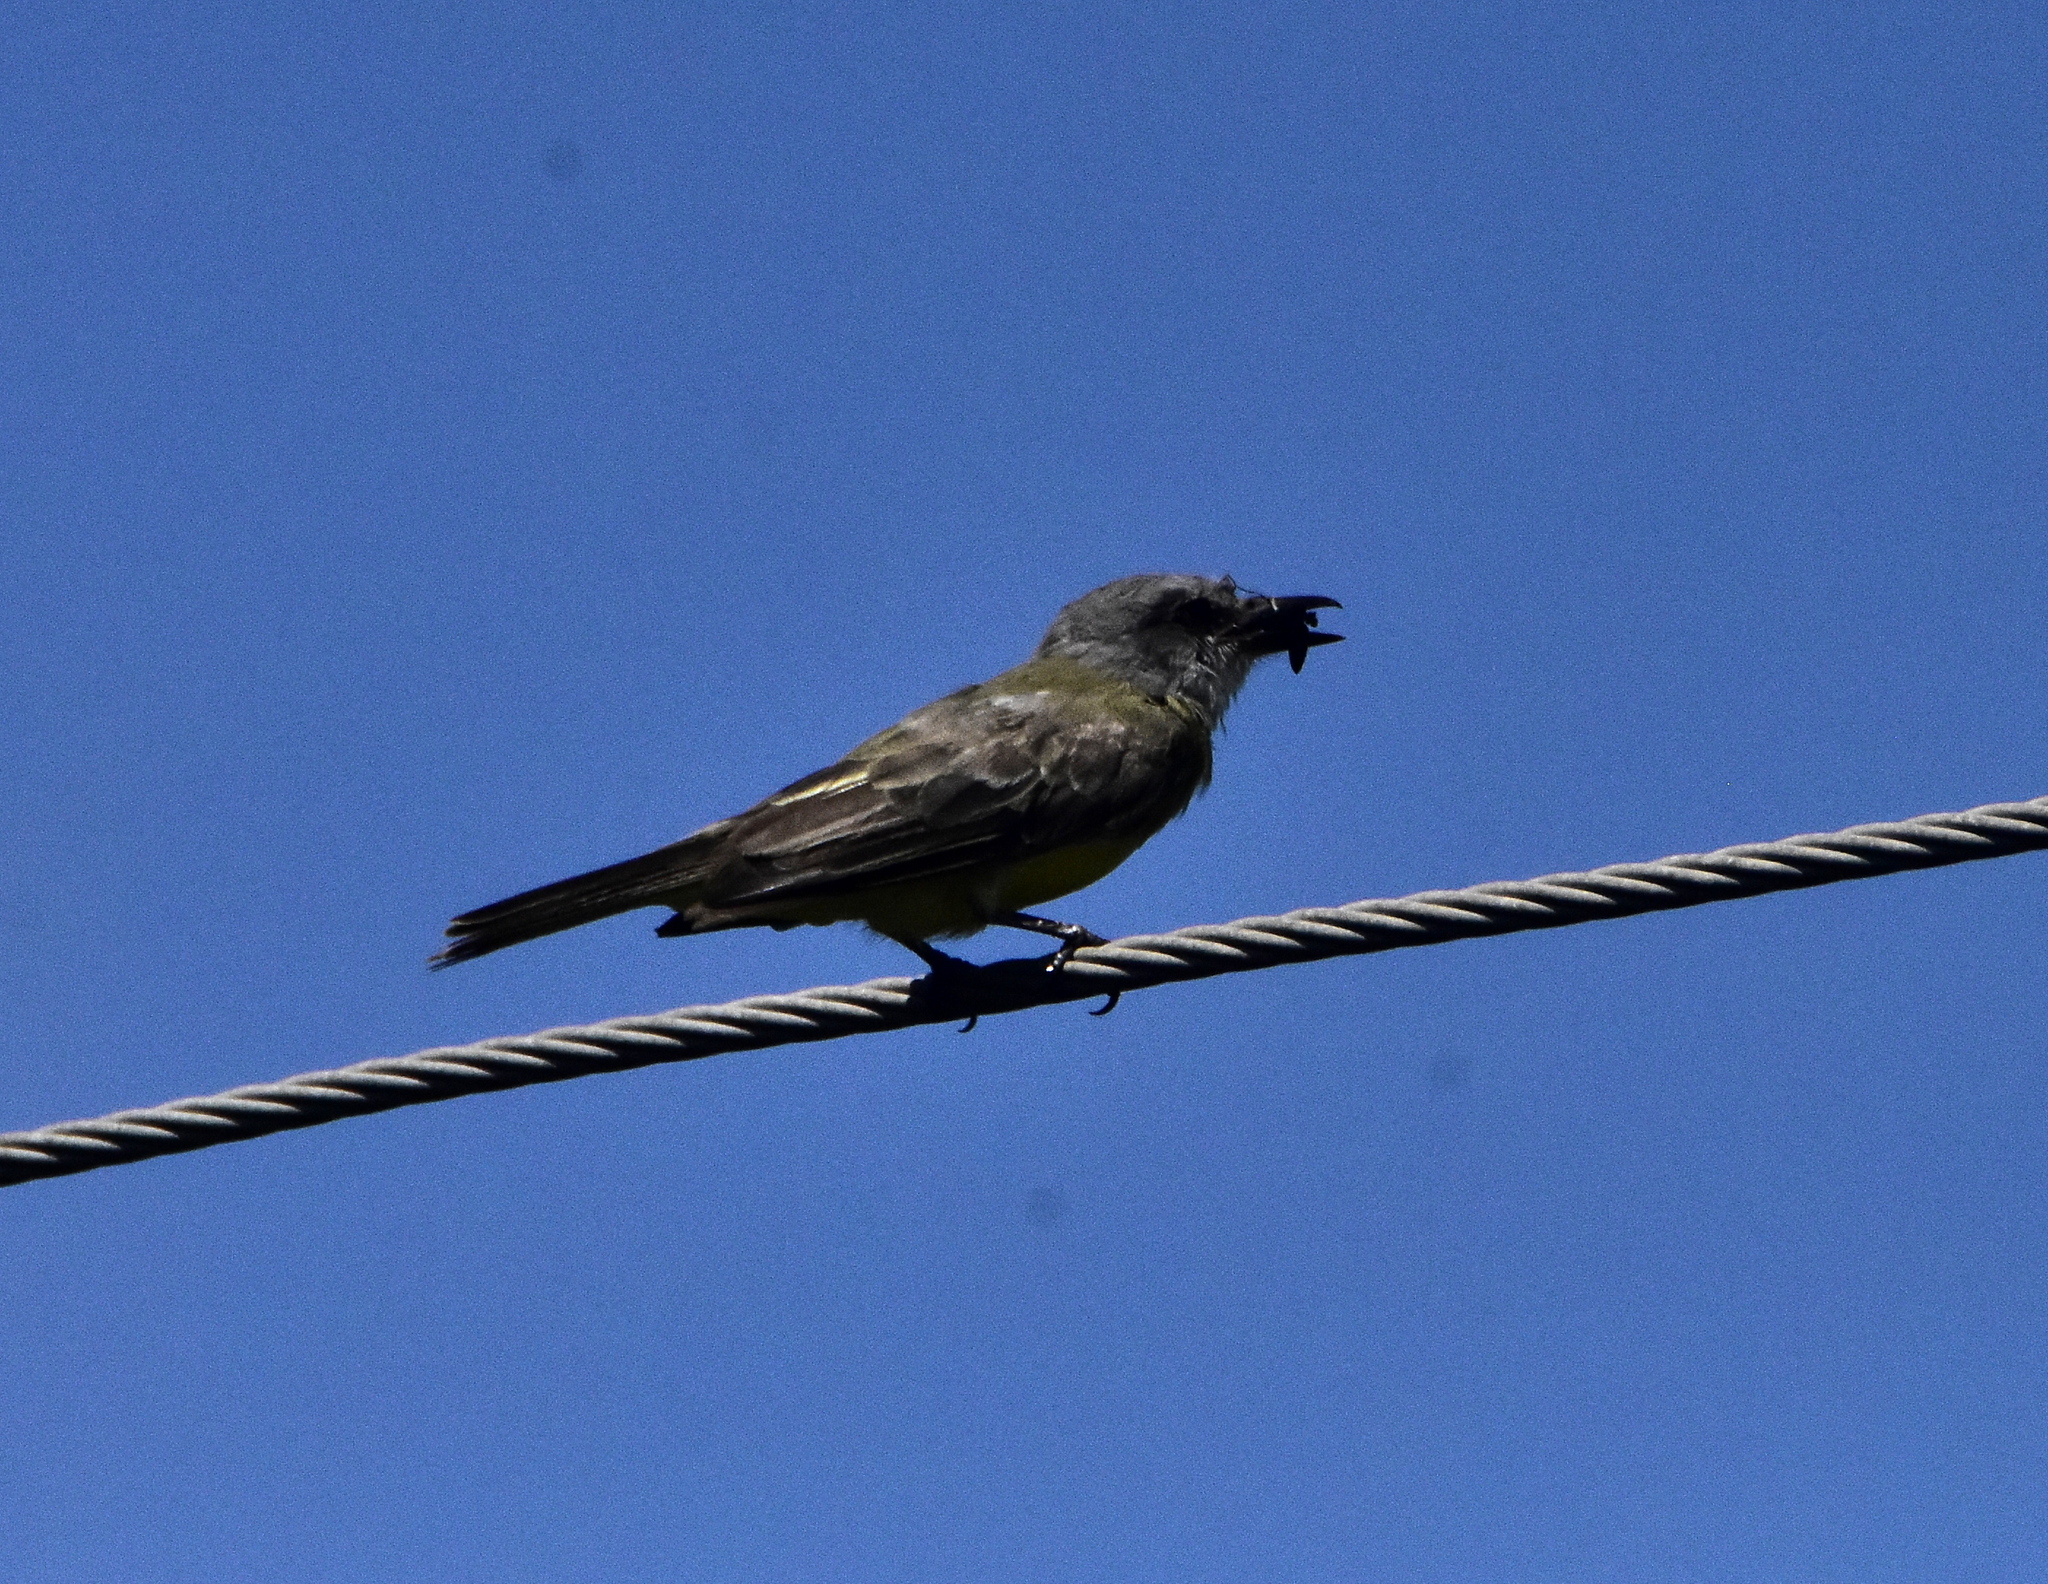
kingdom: Animalia
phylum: Chordata
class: Aves
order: Passeriformes
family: Tyrannidae
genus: Tyrannus
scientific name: Tyrannus melancholicus
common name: Tropical kingbird
